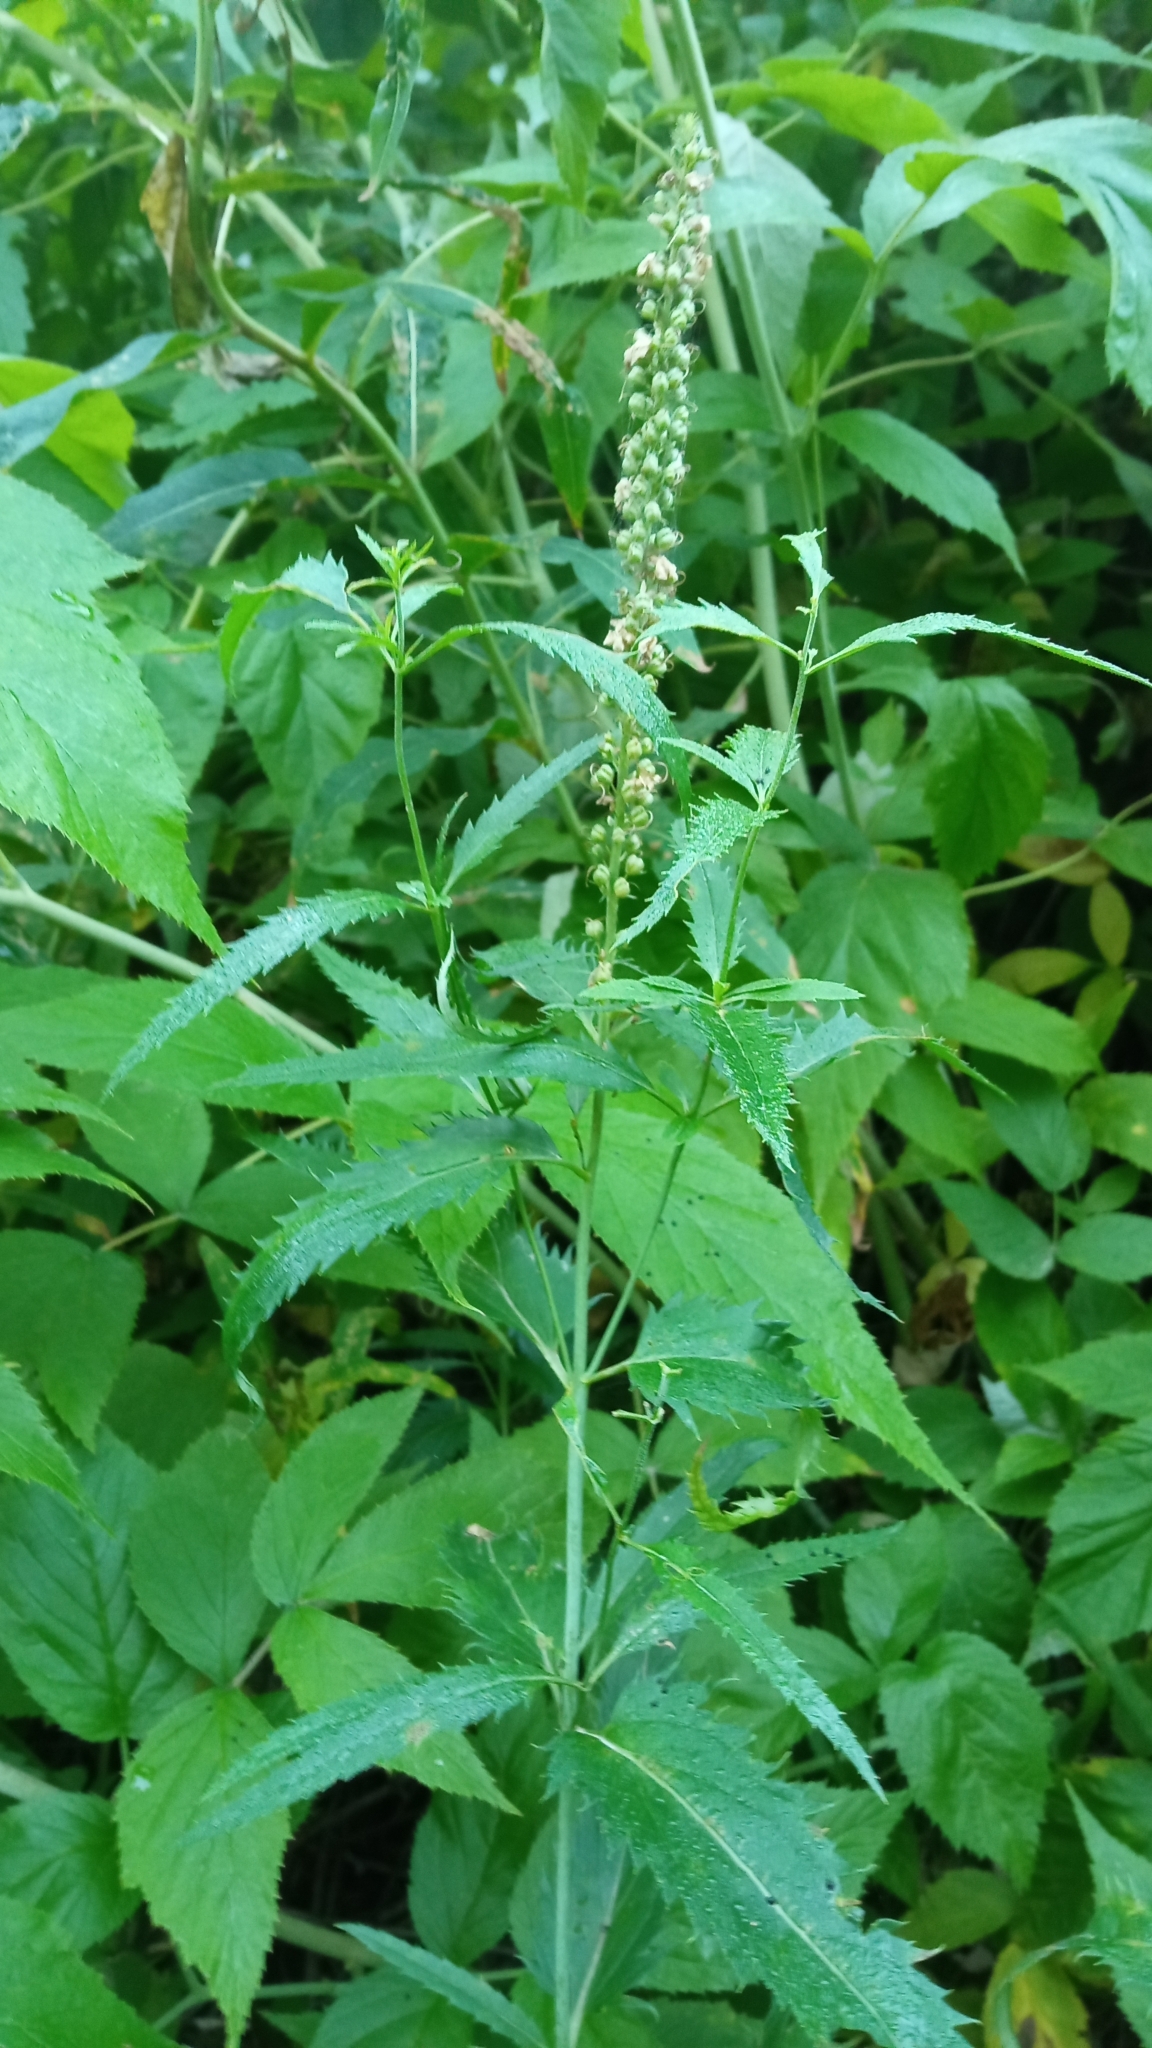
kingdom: Plantae
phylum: Tracheophyta
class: Magnoliopsida
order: Lamiales
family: Plantaginaceae
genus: Veronica
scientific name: Veronica longifolia
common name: Garden speedwell
